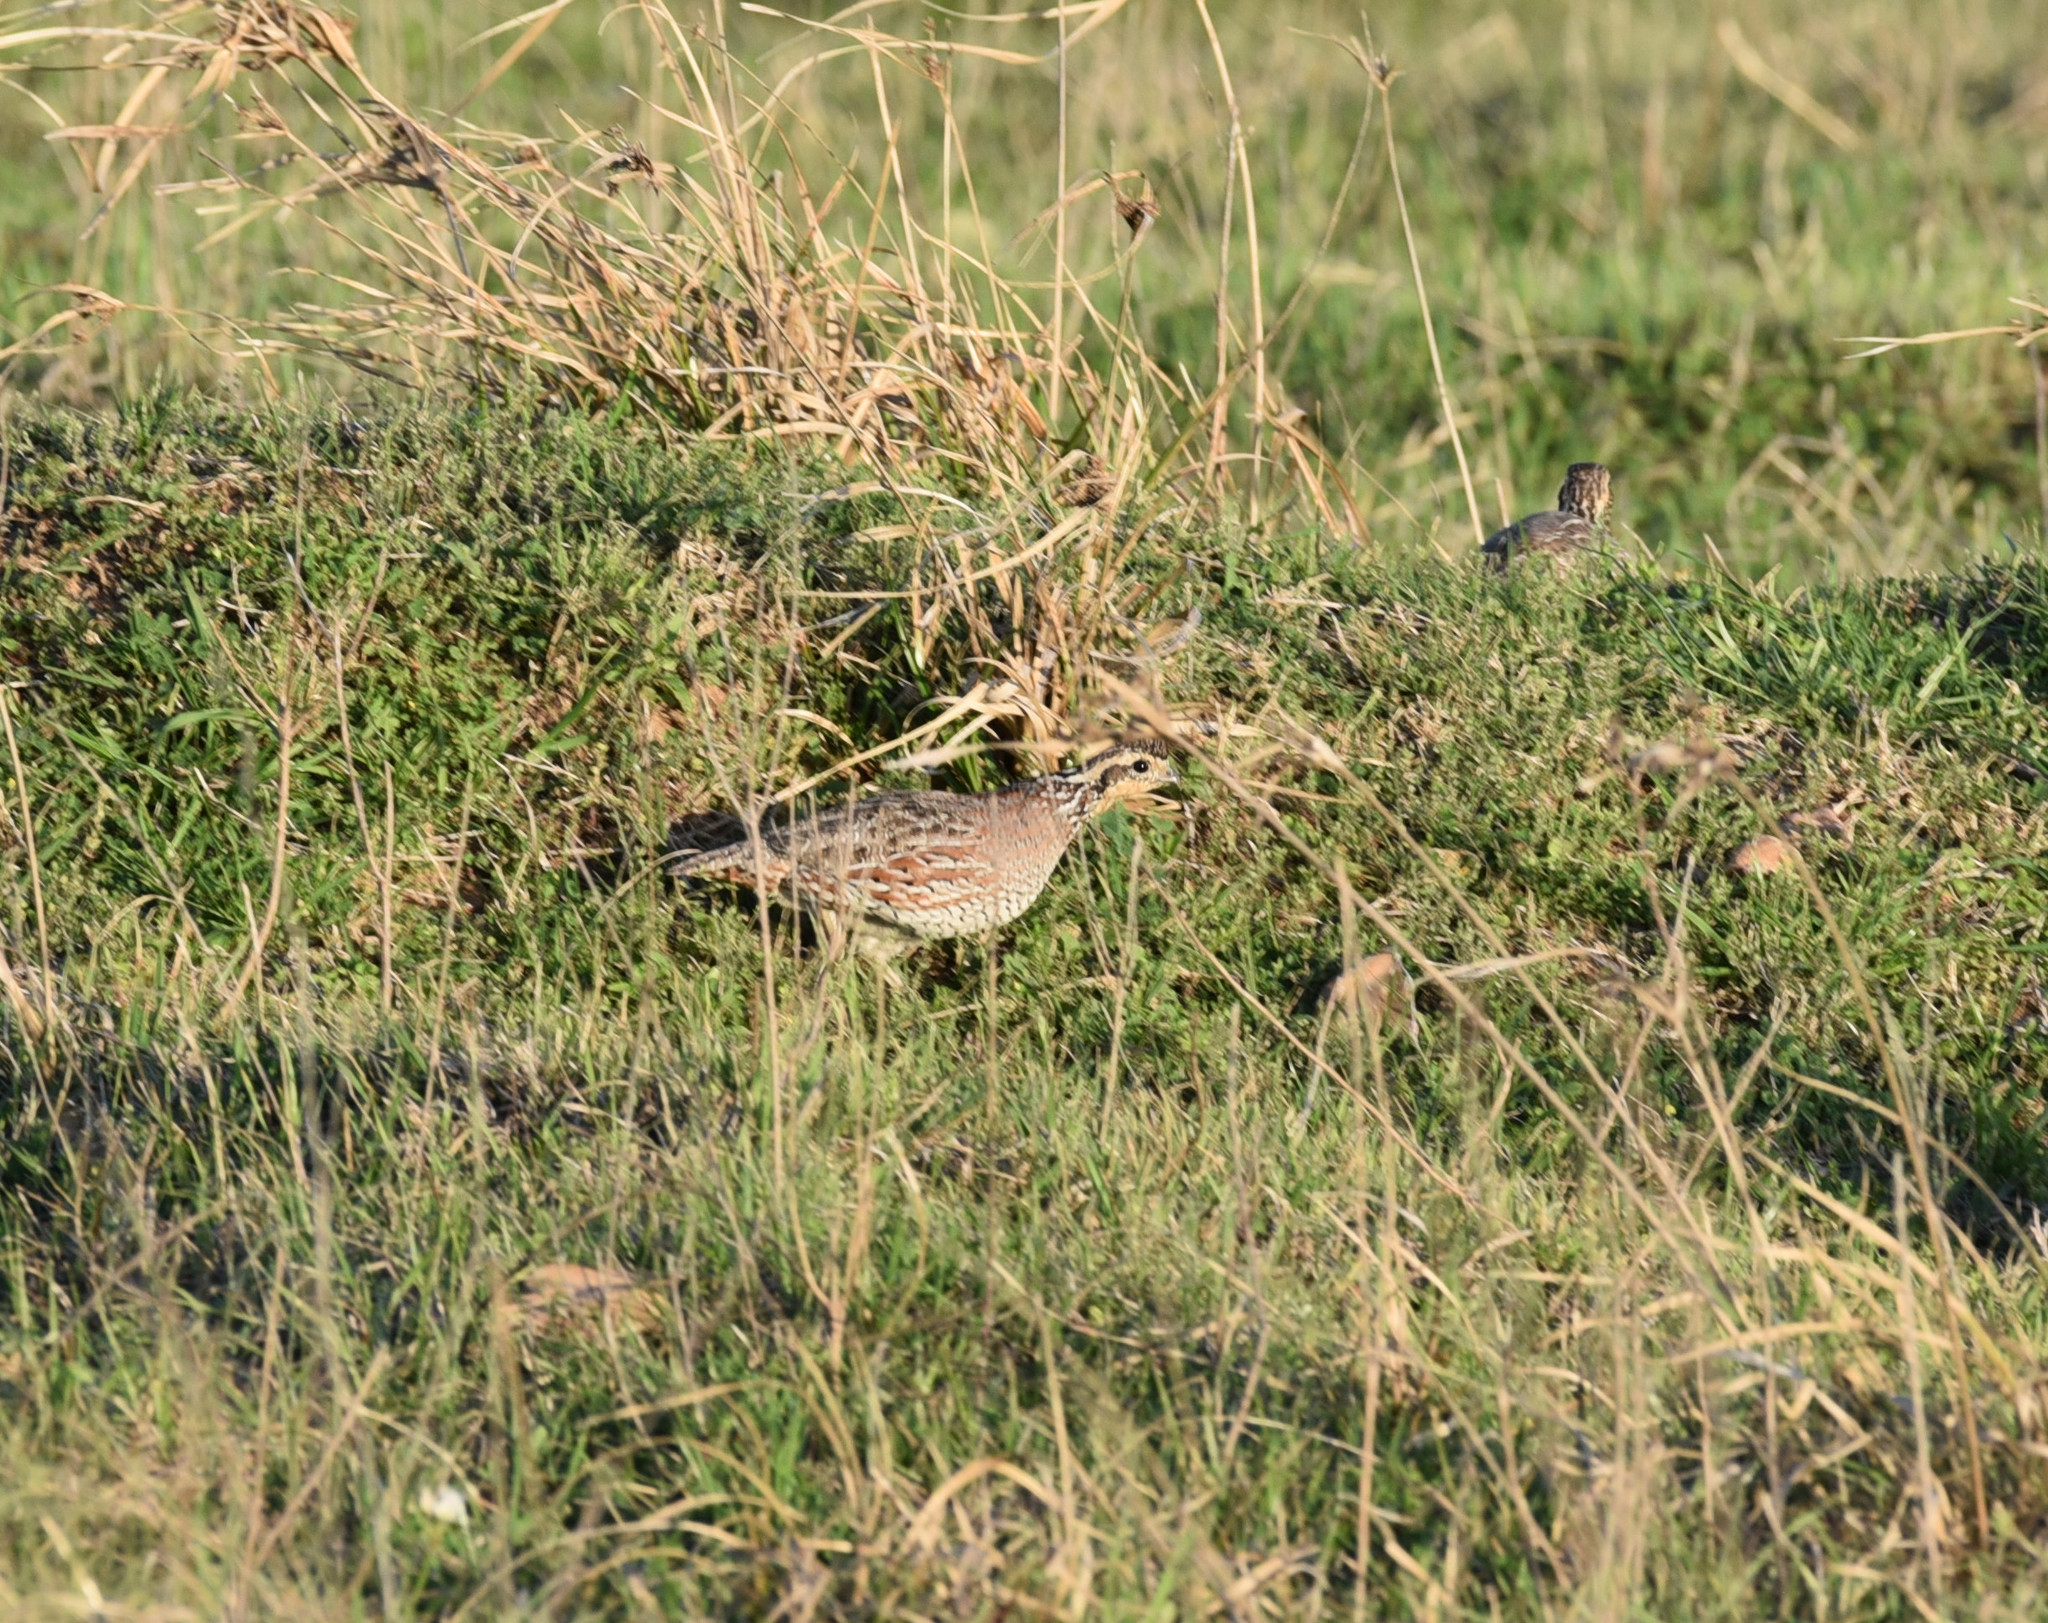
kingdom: Animalia
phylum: Chordata
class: Aves
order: Galliformes
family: Odontophoridae
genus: Colinus
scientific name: Colinus virginianus
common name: Northern bobwhite
